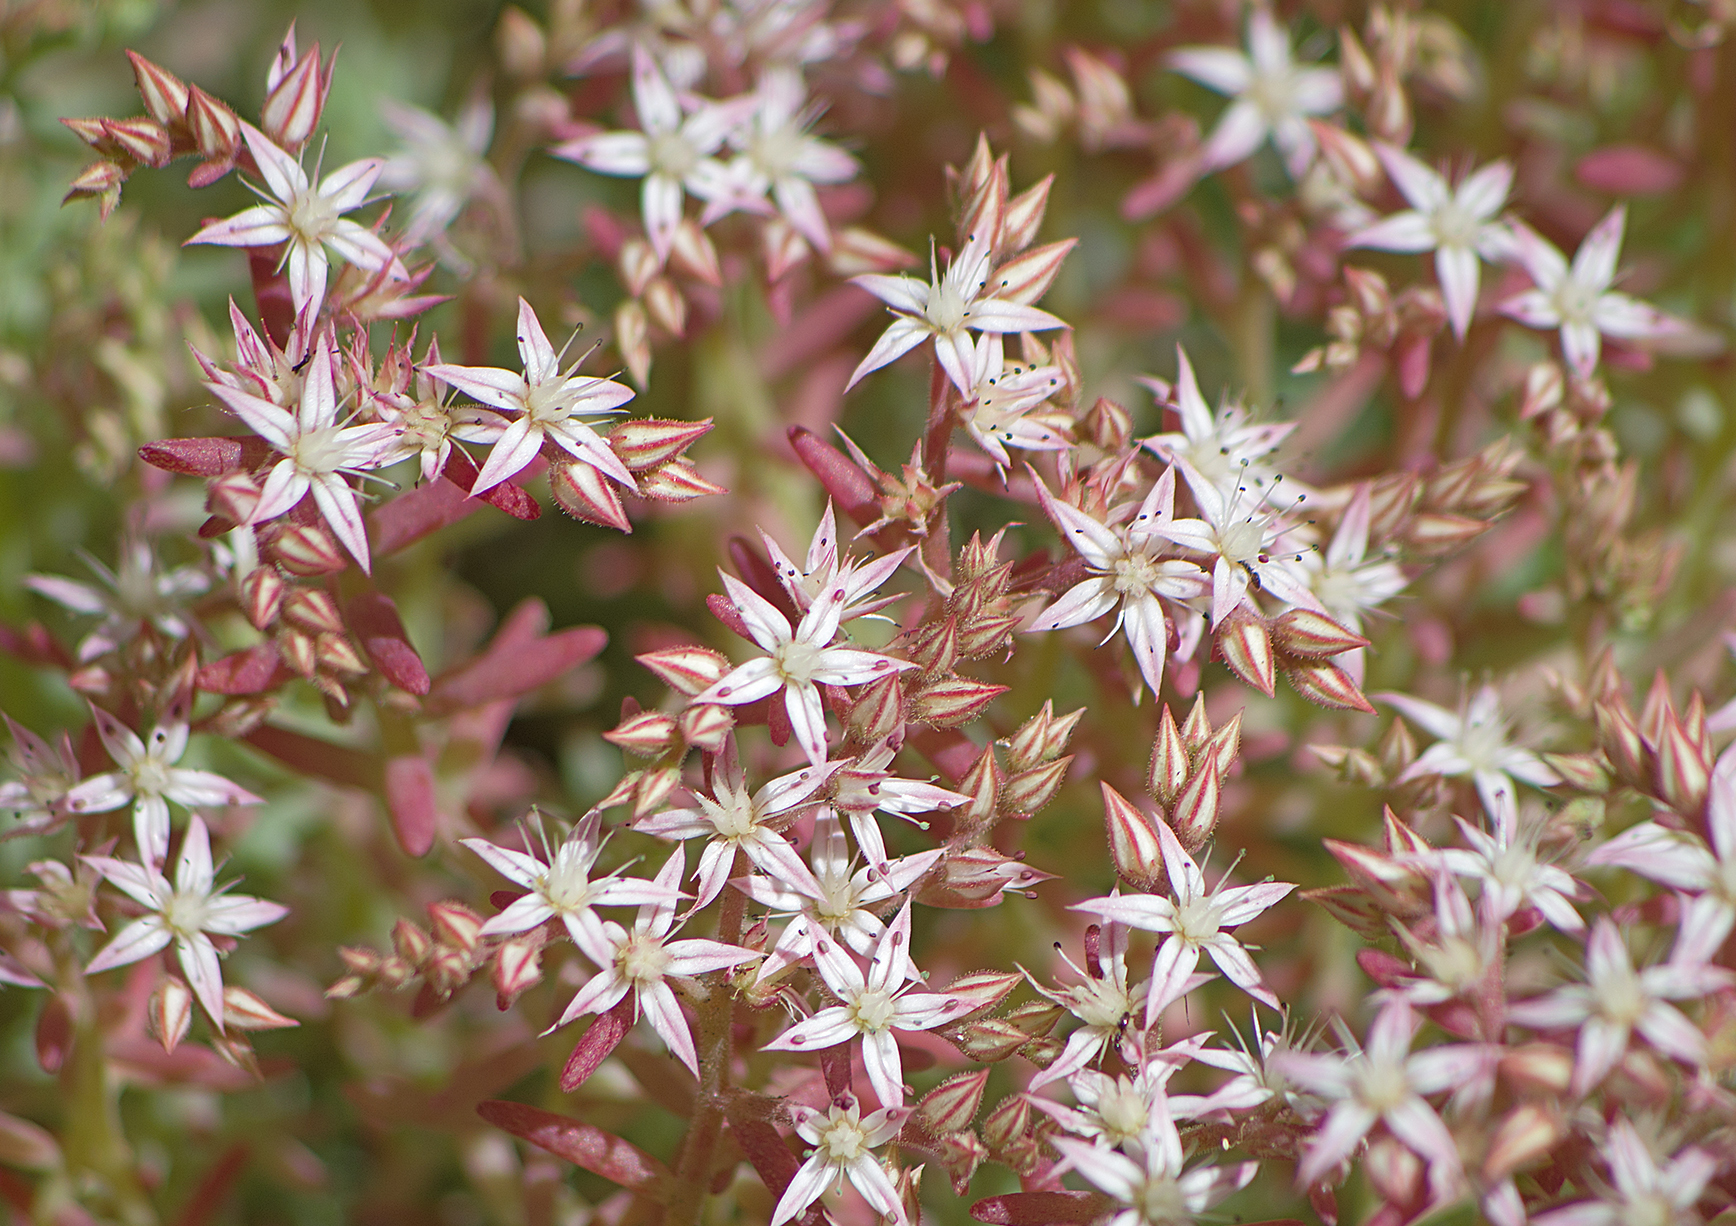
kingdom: Plantae
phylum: Tracheophyta
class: Magnoliopsida
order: Saxifragales
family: Crassulaceae
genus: Sedum
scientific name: Sedum pallidum
